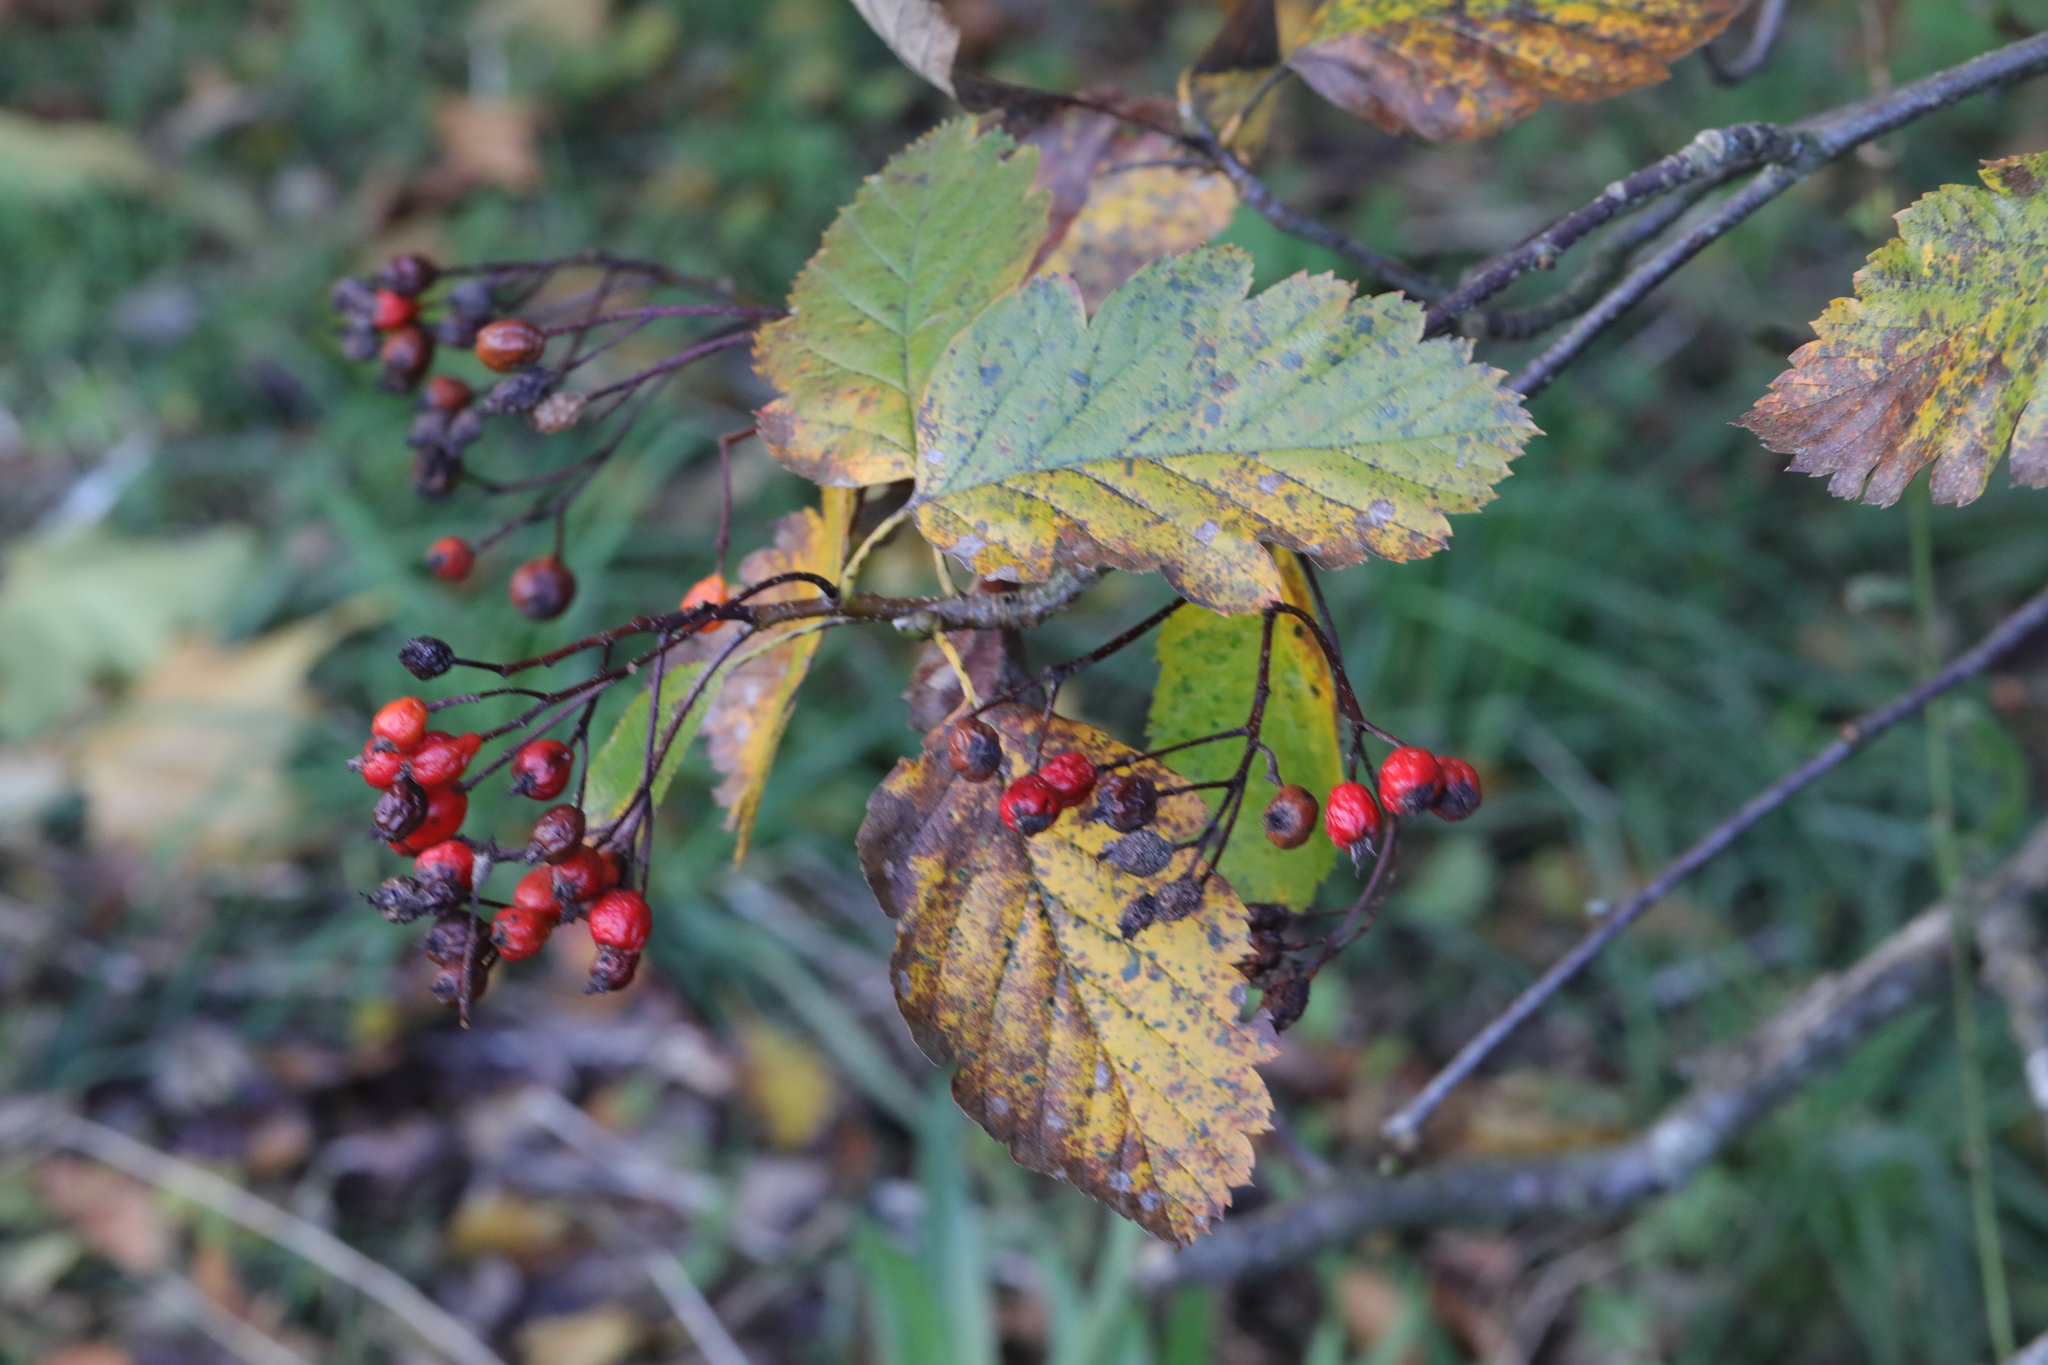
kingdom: Plantae
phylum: Tracheophyta
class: Magnoliopsida
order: Rosales
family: Rosaceae
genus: Scandosorbus
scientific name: Scandosorbus intermedia
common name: Swedish whitebeam
